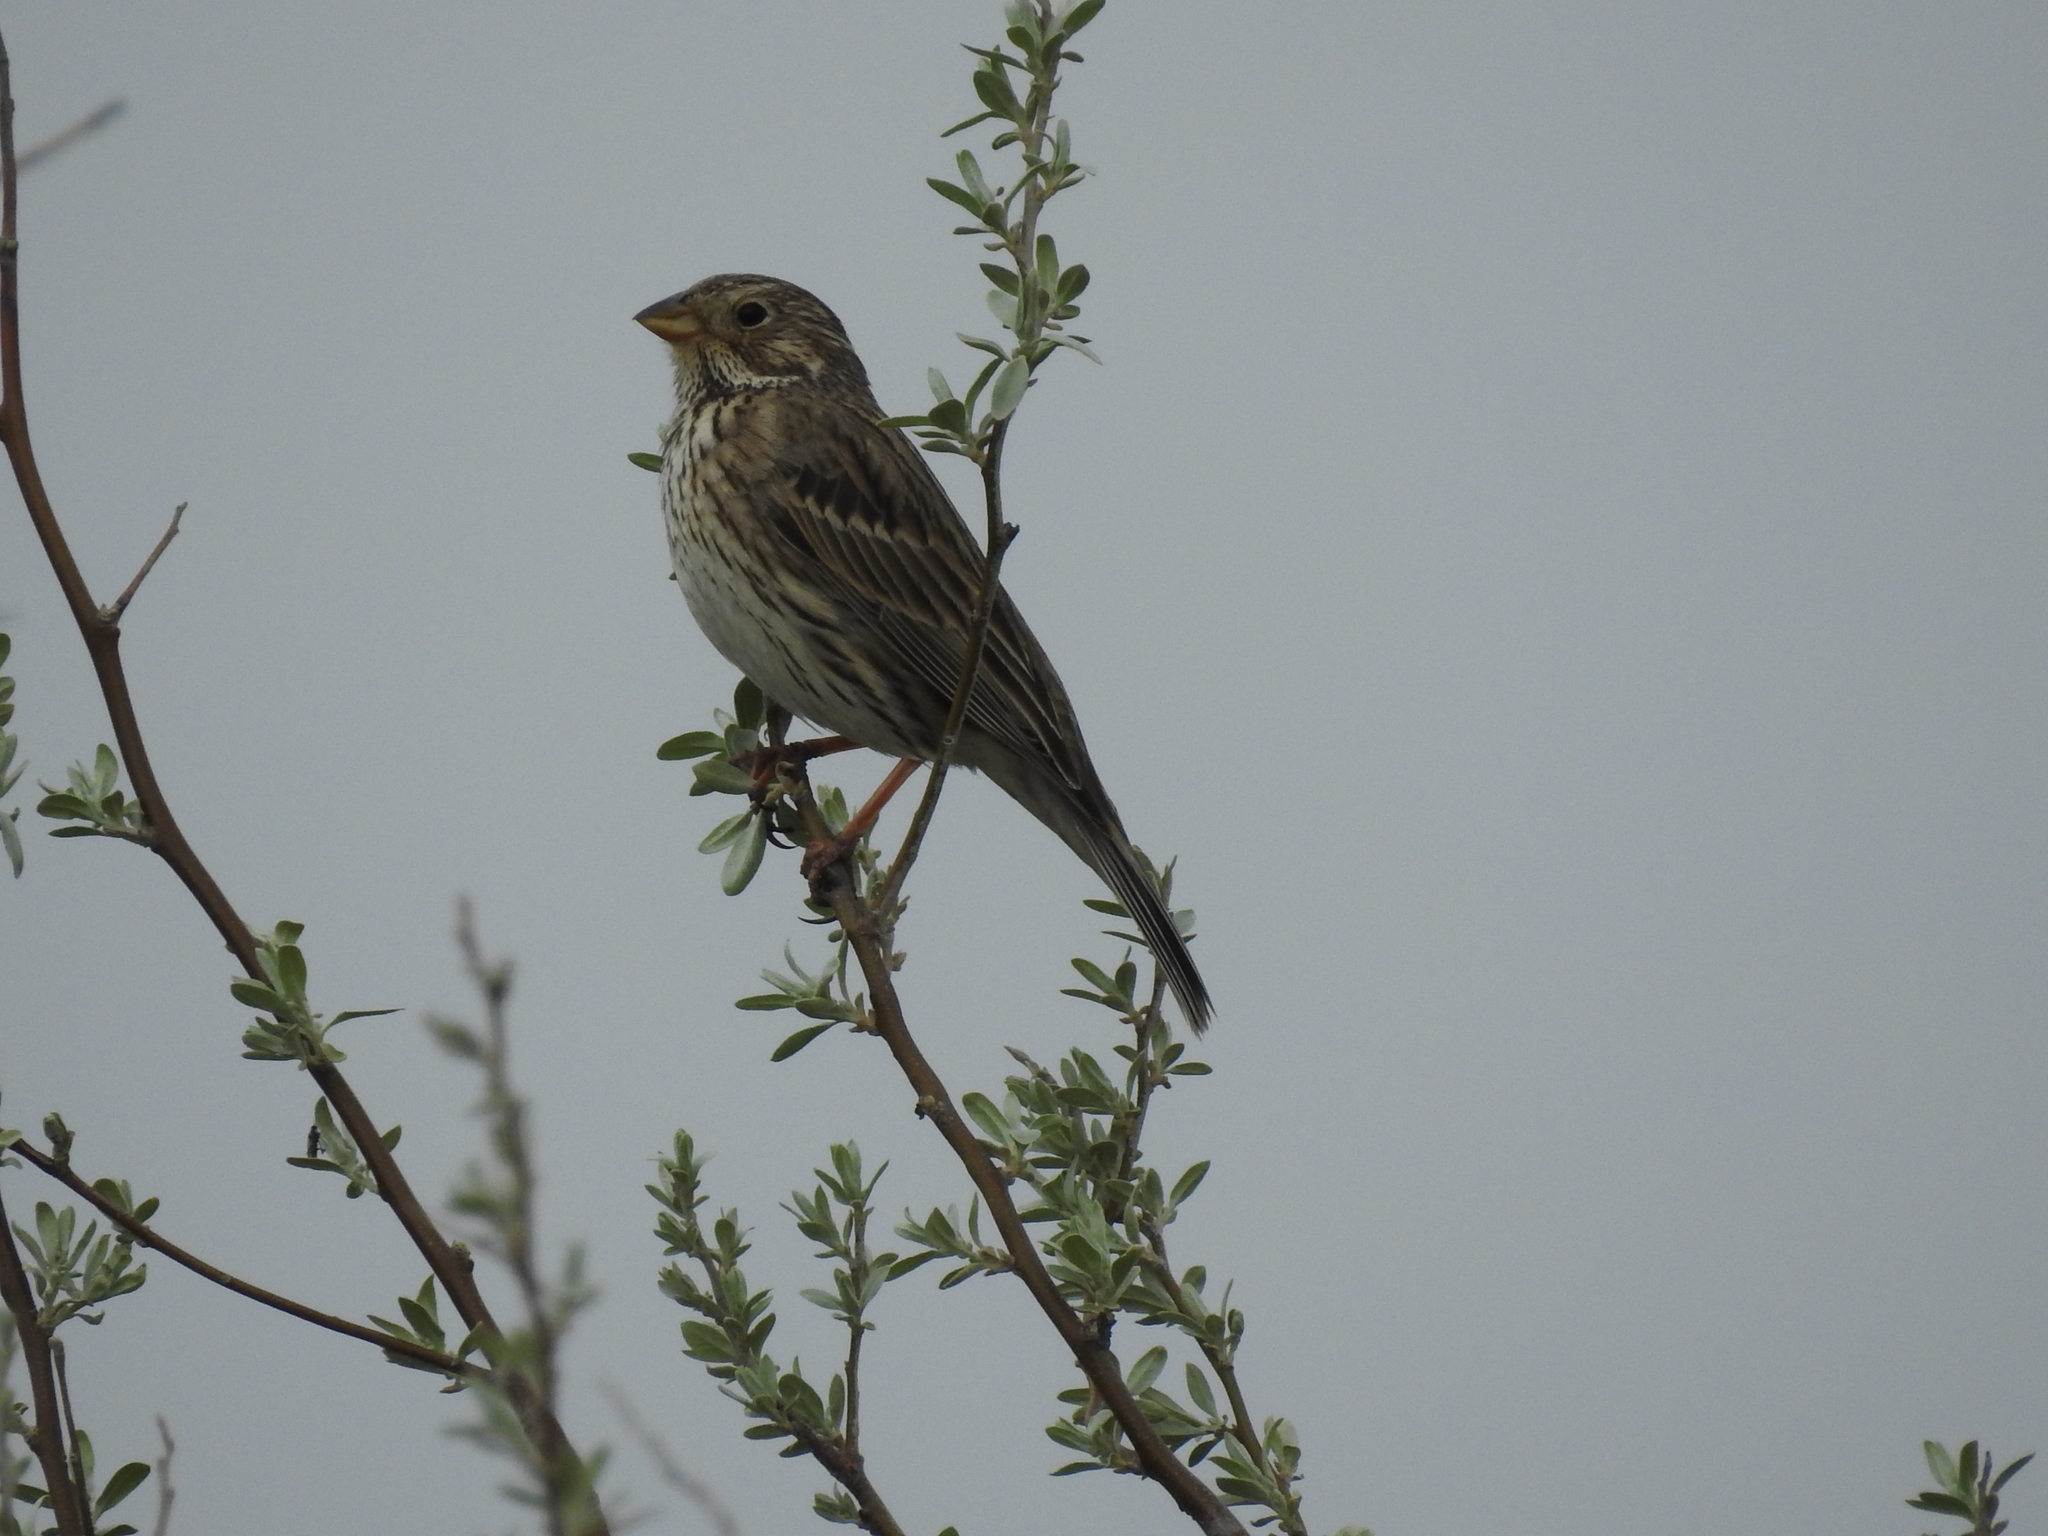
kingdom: Animalia
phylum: Chordata
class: Aves
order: Passeriformes
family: Emberizidae
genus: Emberiza
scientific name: Emberiza calandra
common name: Corn bunting
